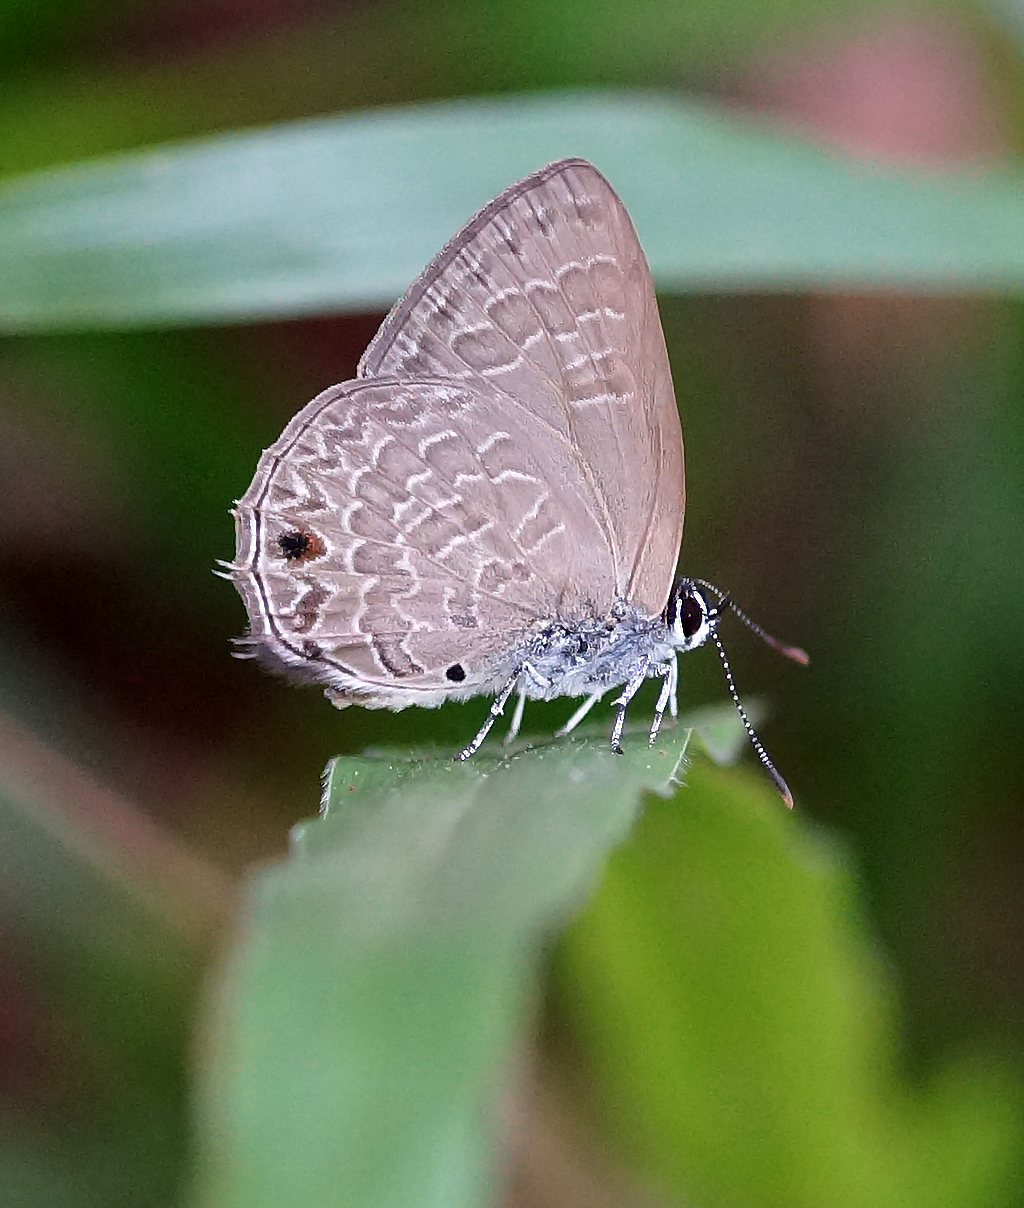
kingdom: Animalia
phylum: Arthropoda
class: Insecta
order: Lepidoptera
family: Lycaenidae
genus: Anthene
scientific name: Anthene emolus
